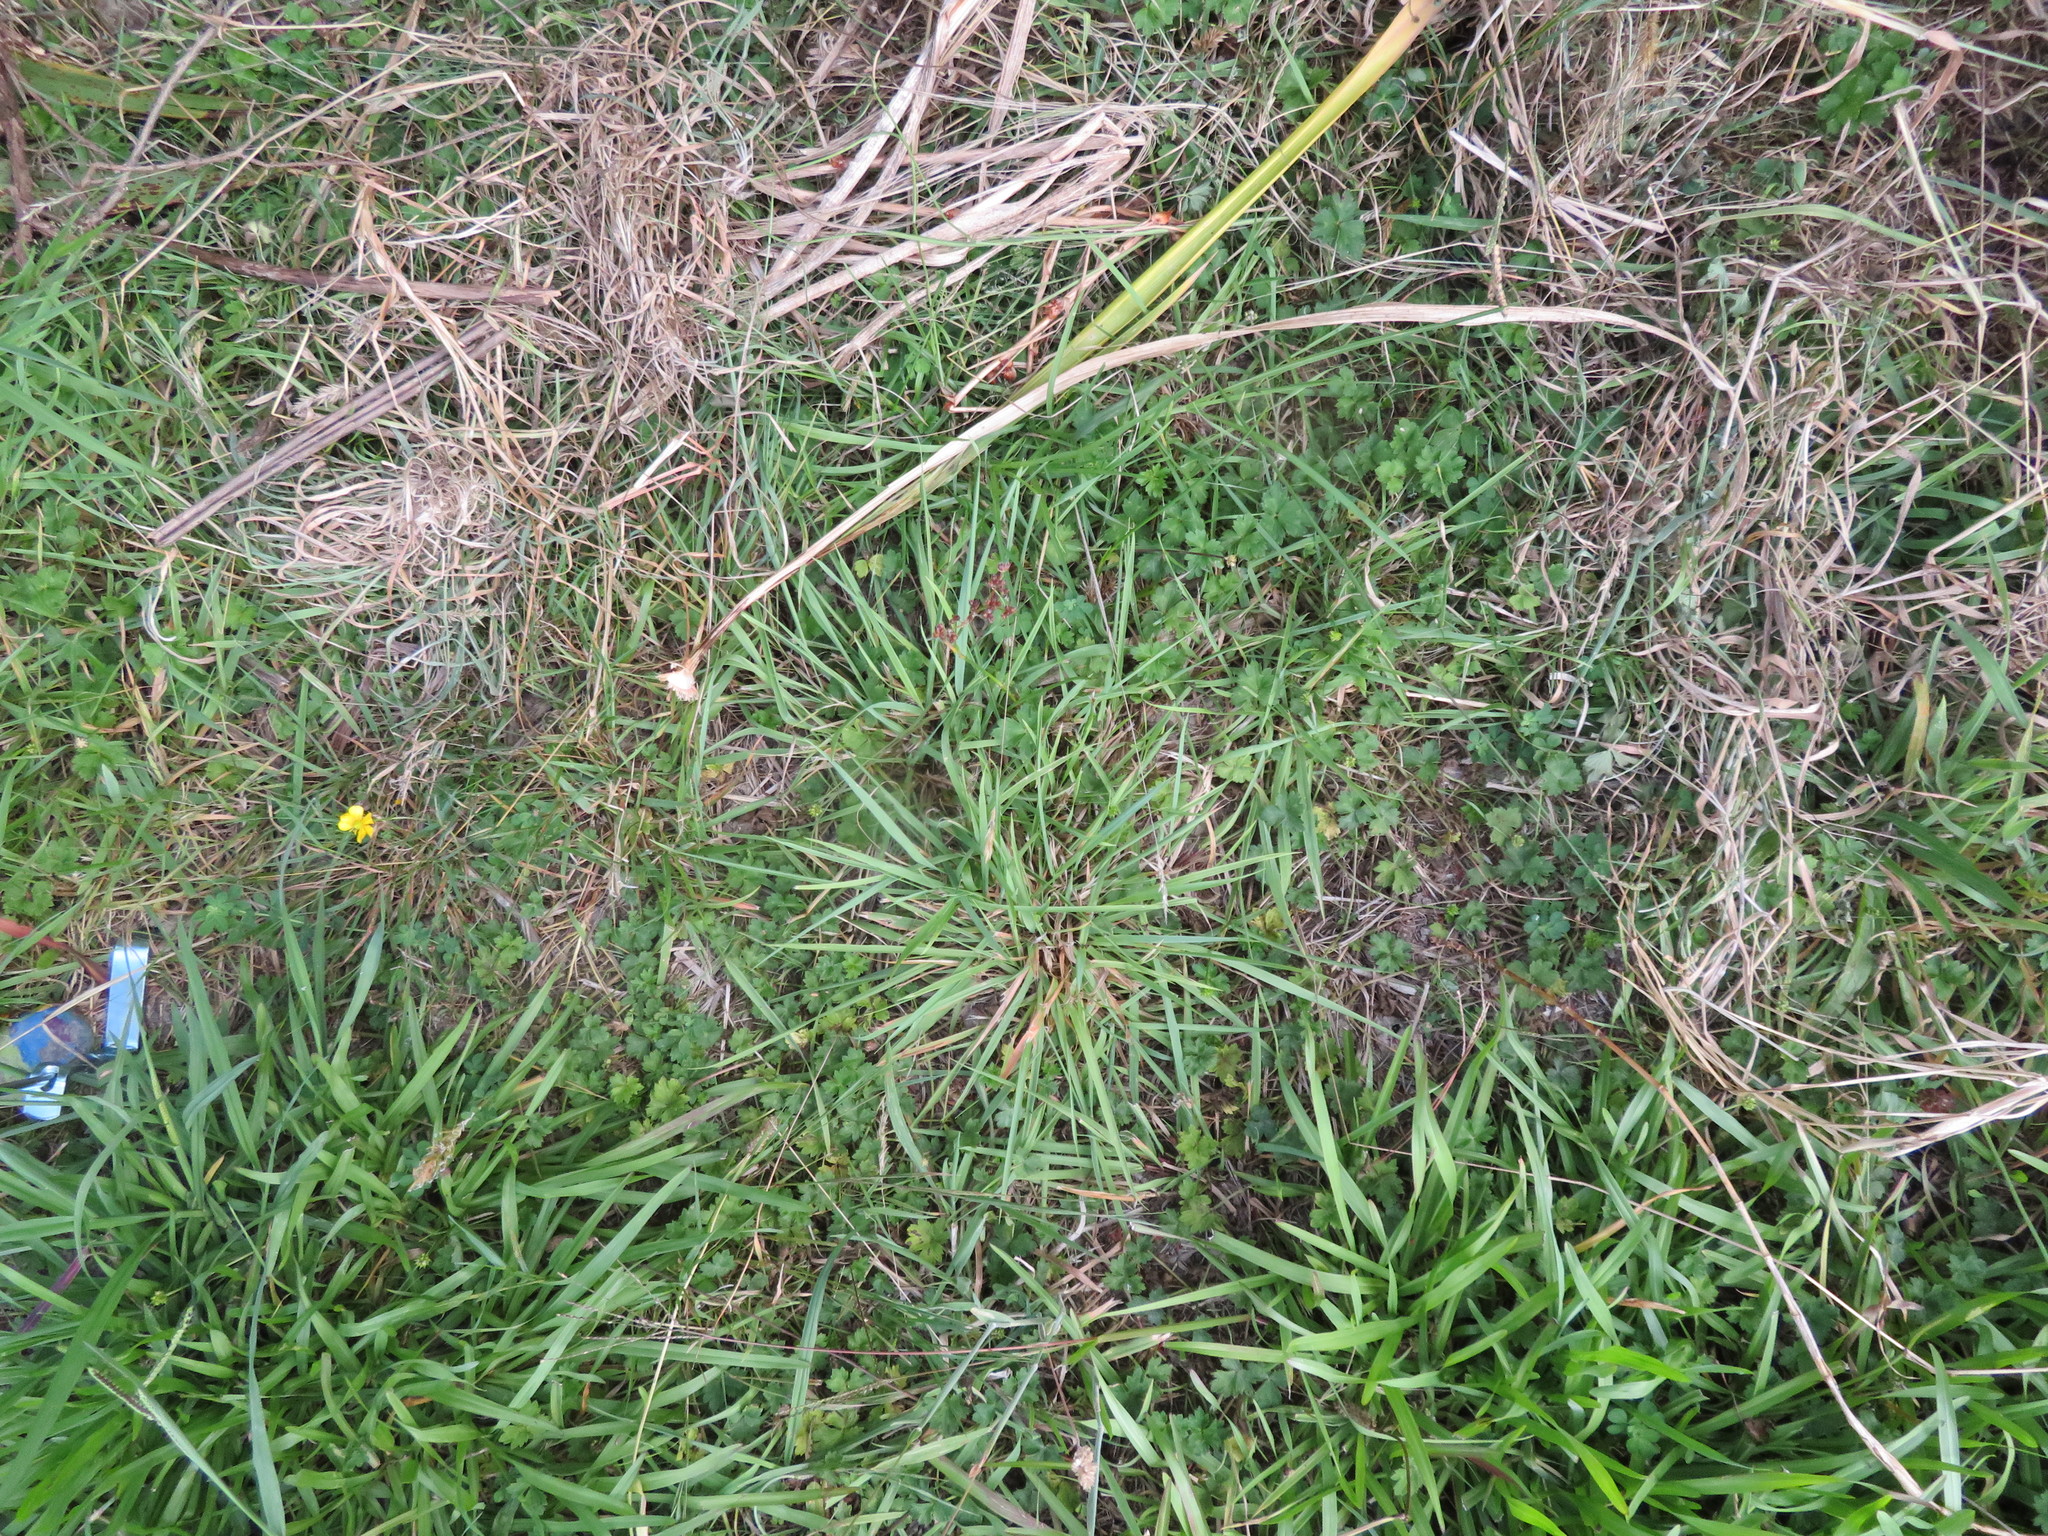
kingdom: Plantae
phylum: Tracheophyta
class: Liliopsida
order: Poales
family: Poaceae
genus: Holcus
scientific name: Holcus lanatus
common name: Yorkshire-fog
